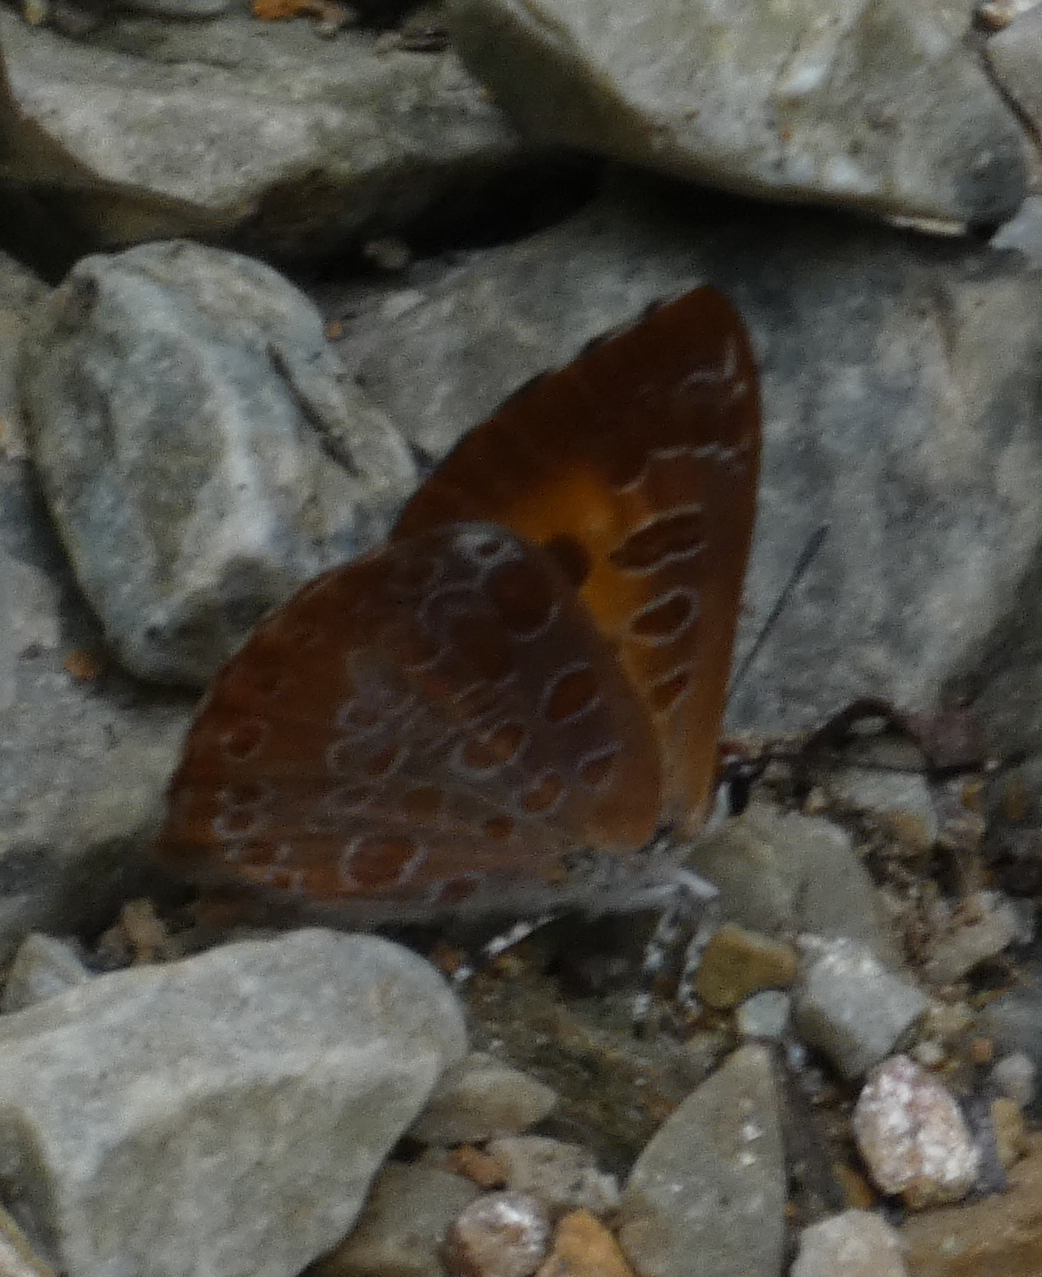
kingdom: Animalia
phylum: Arthropoda
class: Insecta
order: Lepidoptera
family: Lycaenidae
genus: Feniseca
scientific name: Feniseca tarquinius
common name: Harvester
